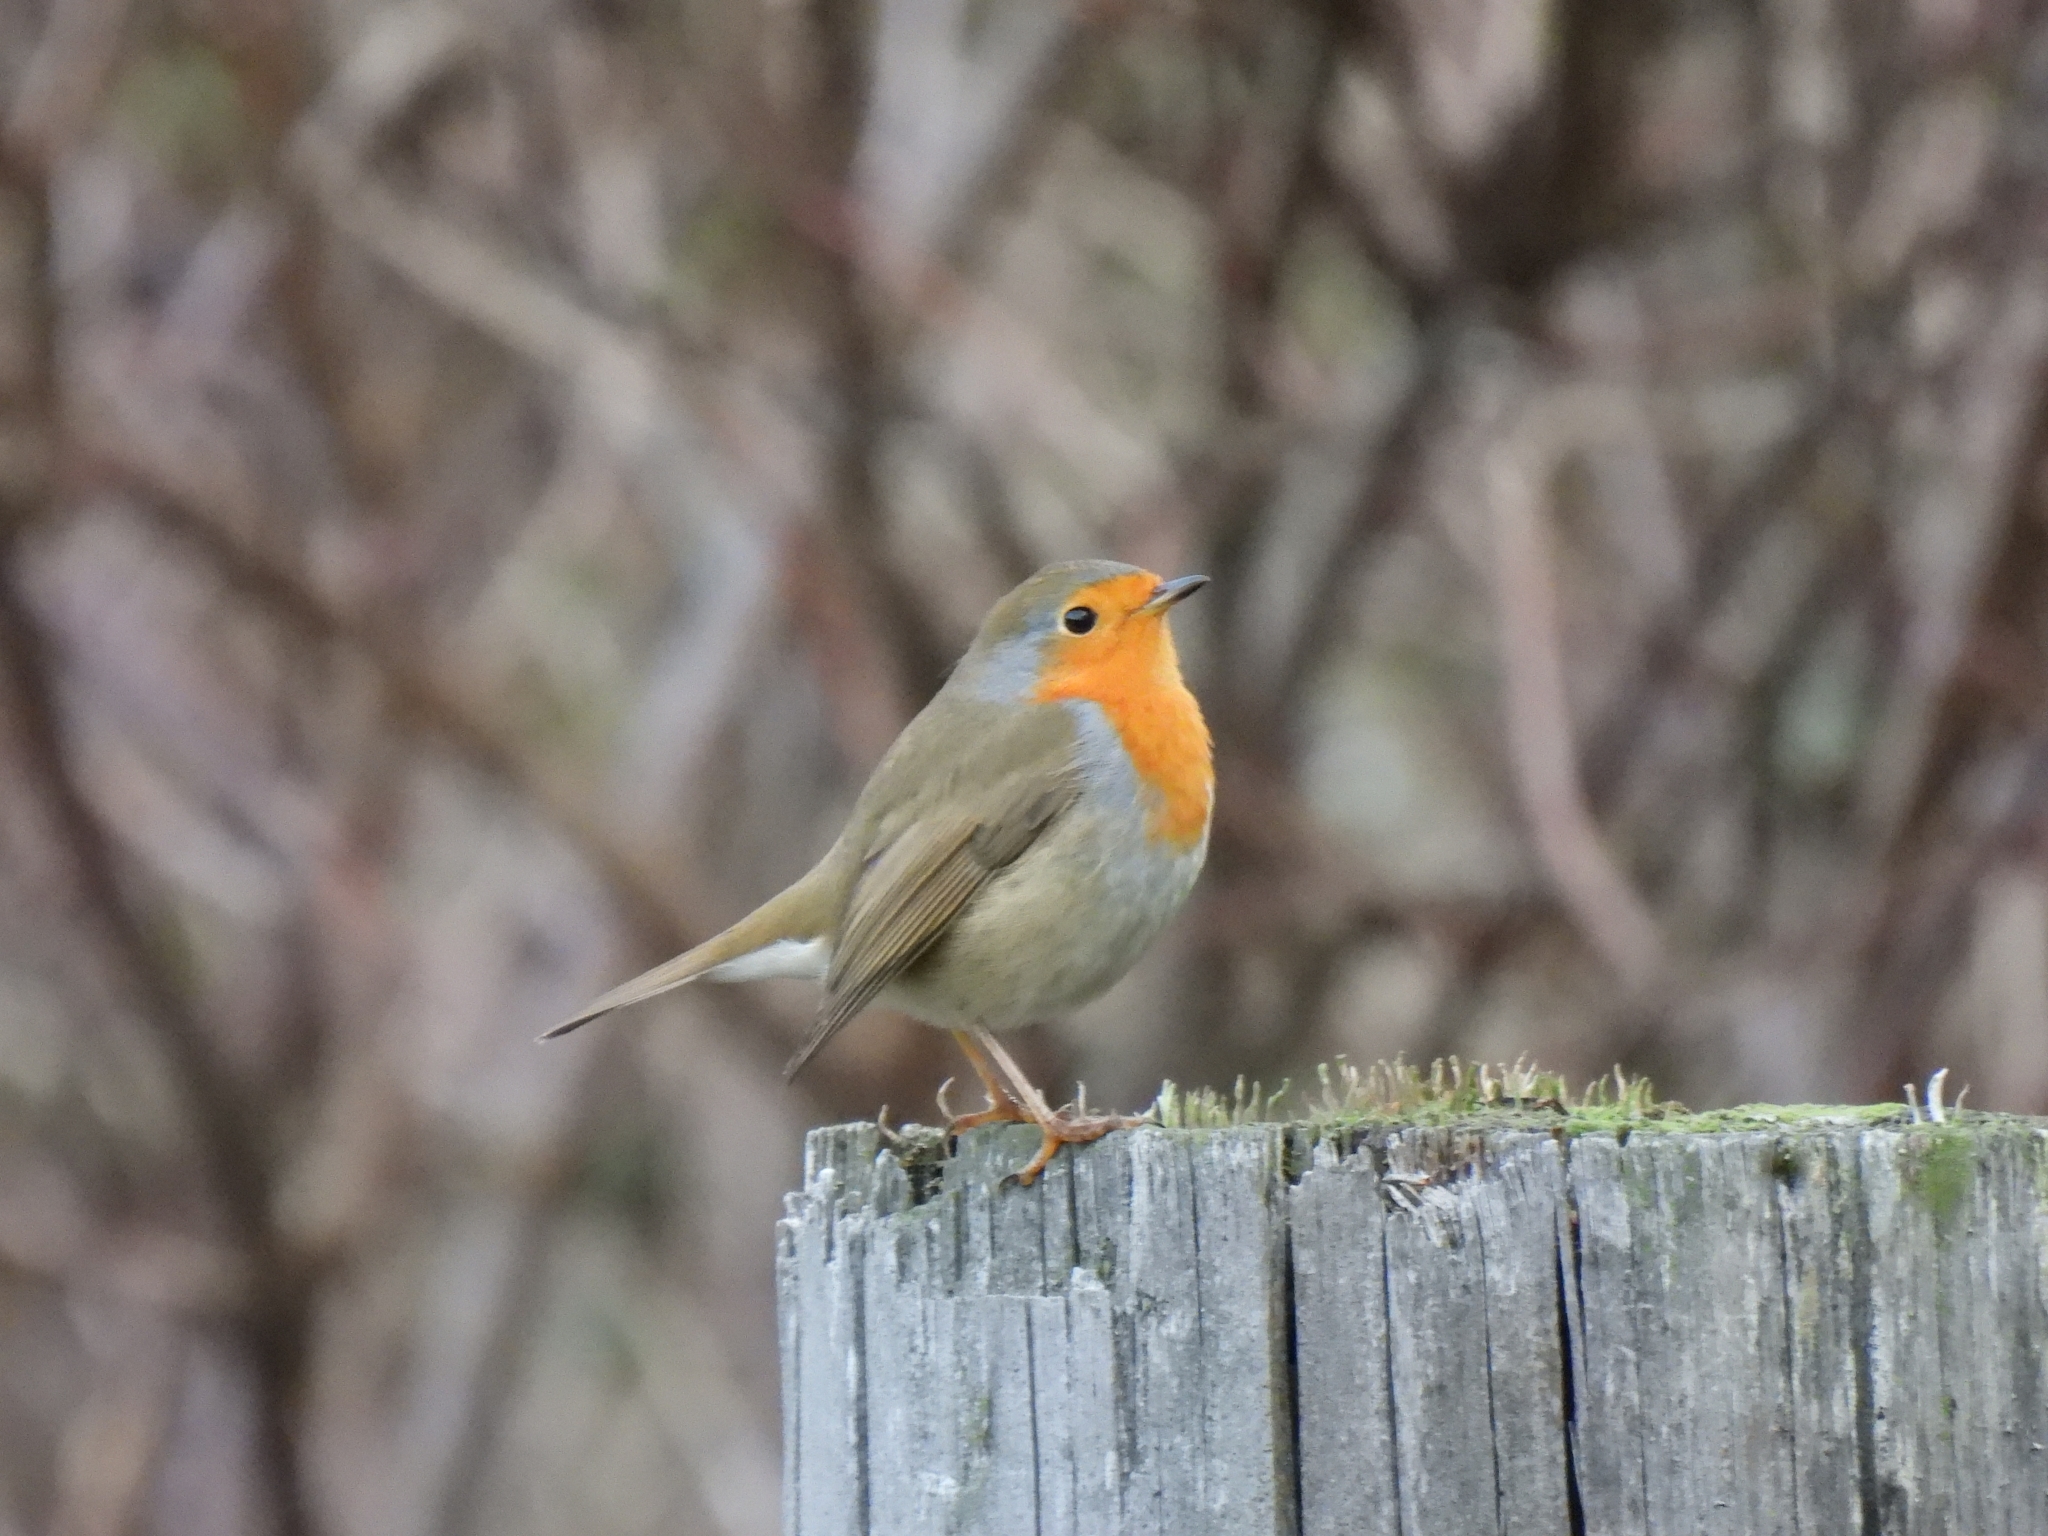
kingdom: Animalia
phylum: Chordata
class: Aves
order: Passeriformes
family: Muscicapidae
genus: Erithacus
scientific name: Erithacus rubecula
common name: European robin
